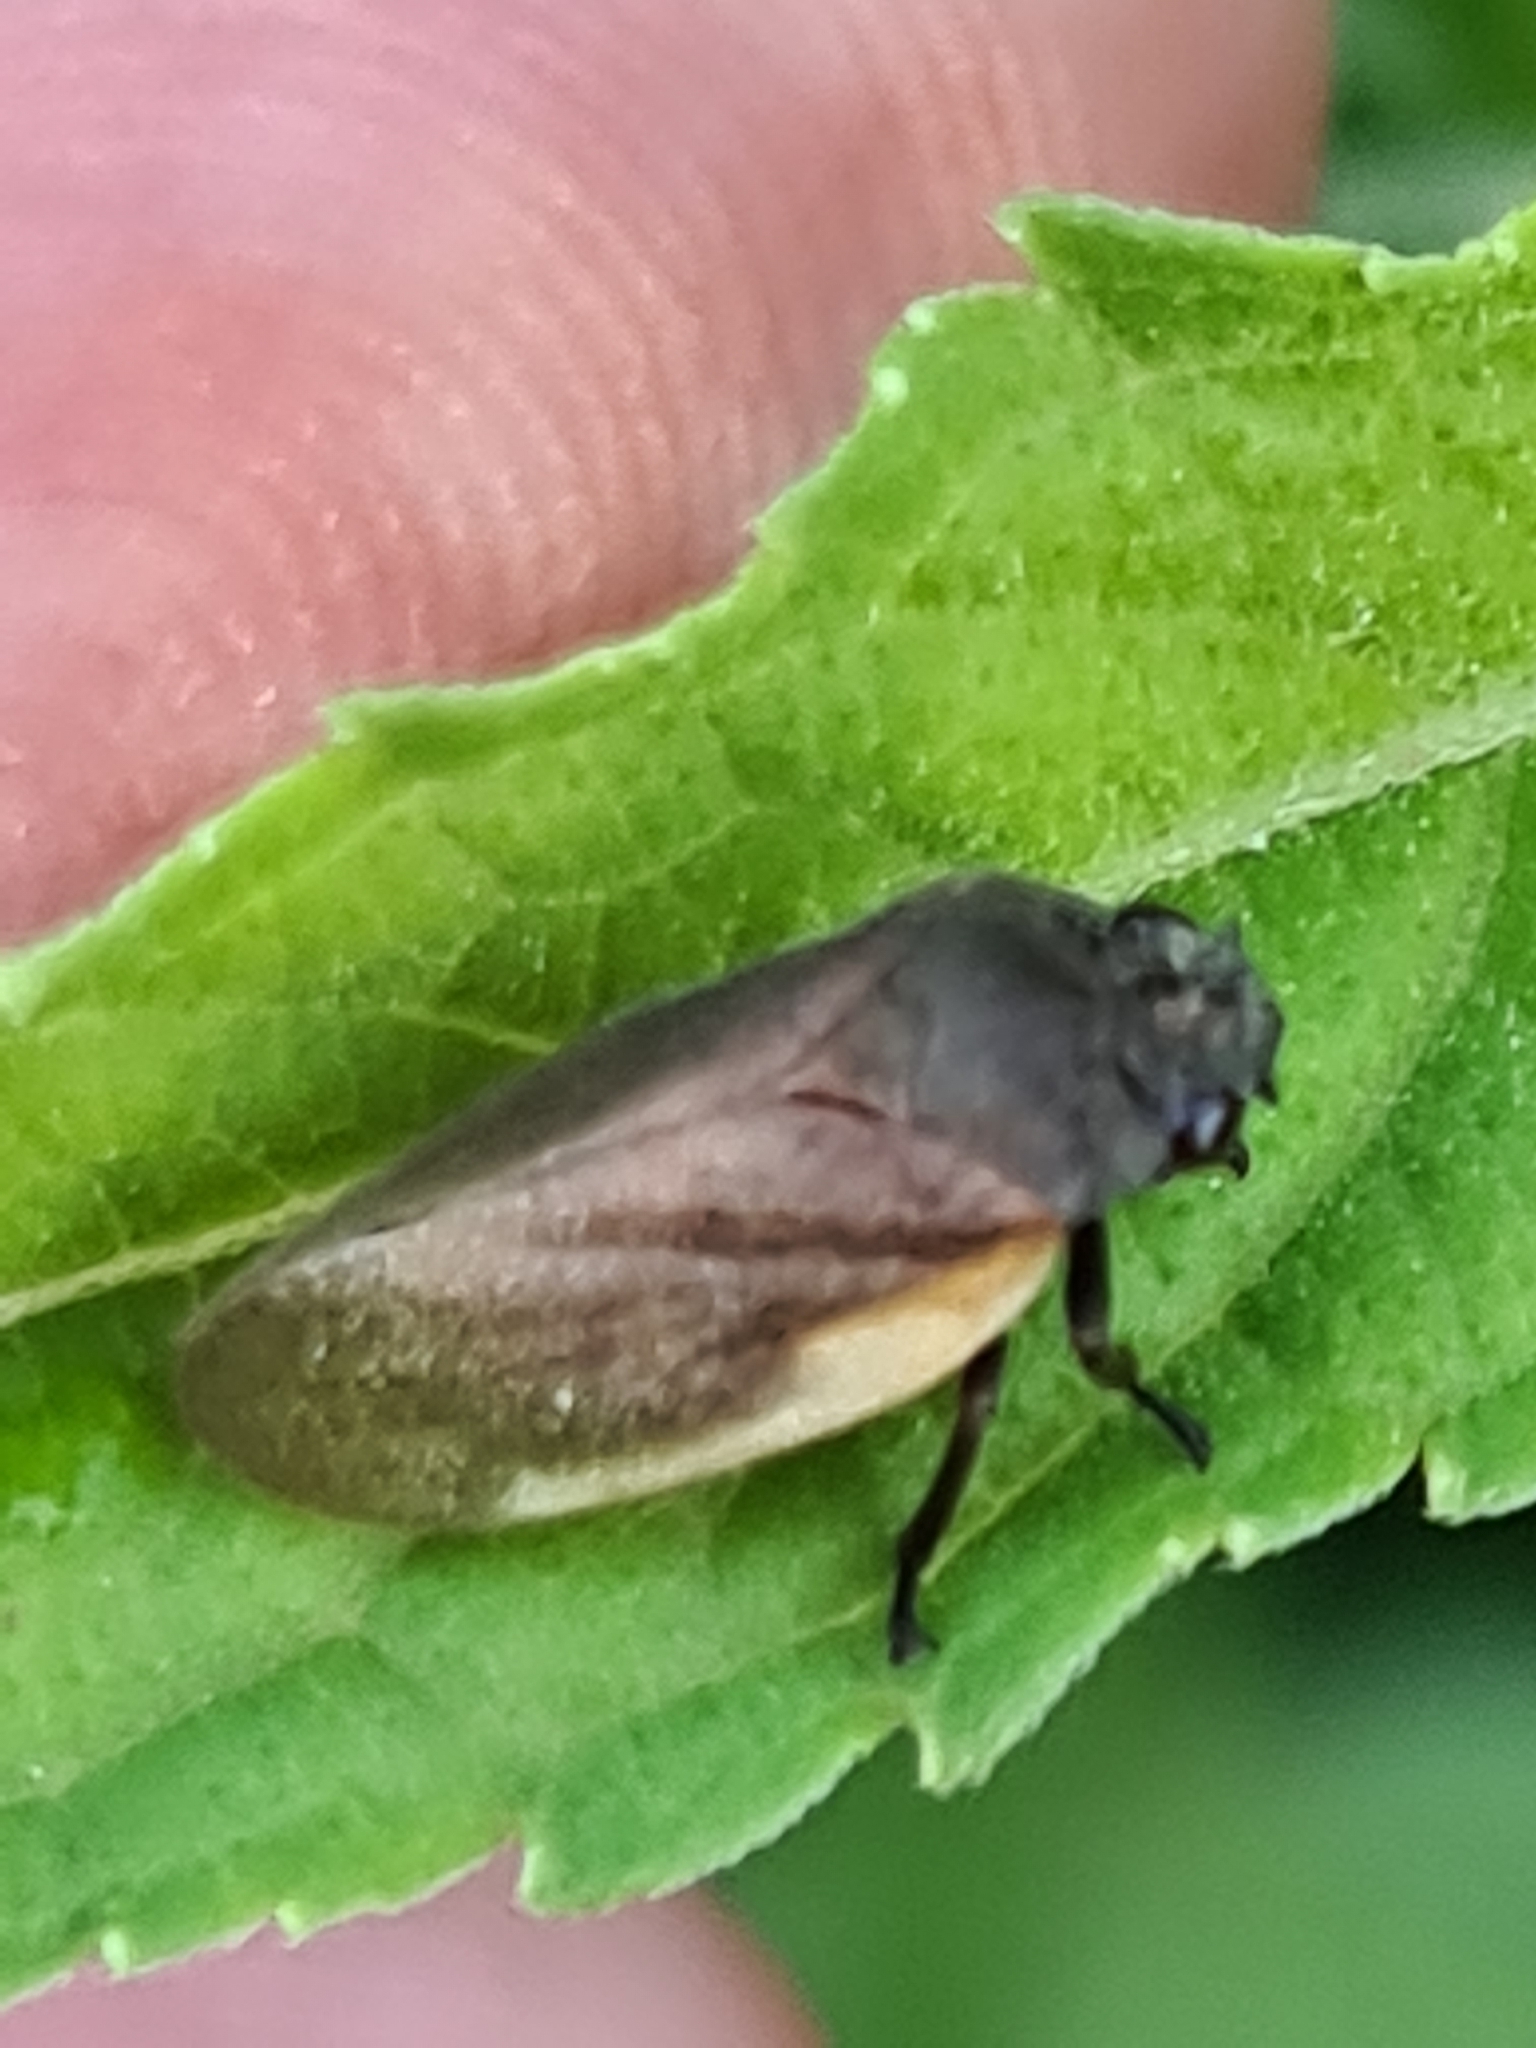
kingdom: Animalia
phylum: Arthropoda
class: Insecta
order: Hemiptera
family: Cercopidae
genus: Aeneolamia
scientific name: Aeneolamia flavilatera
